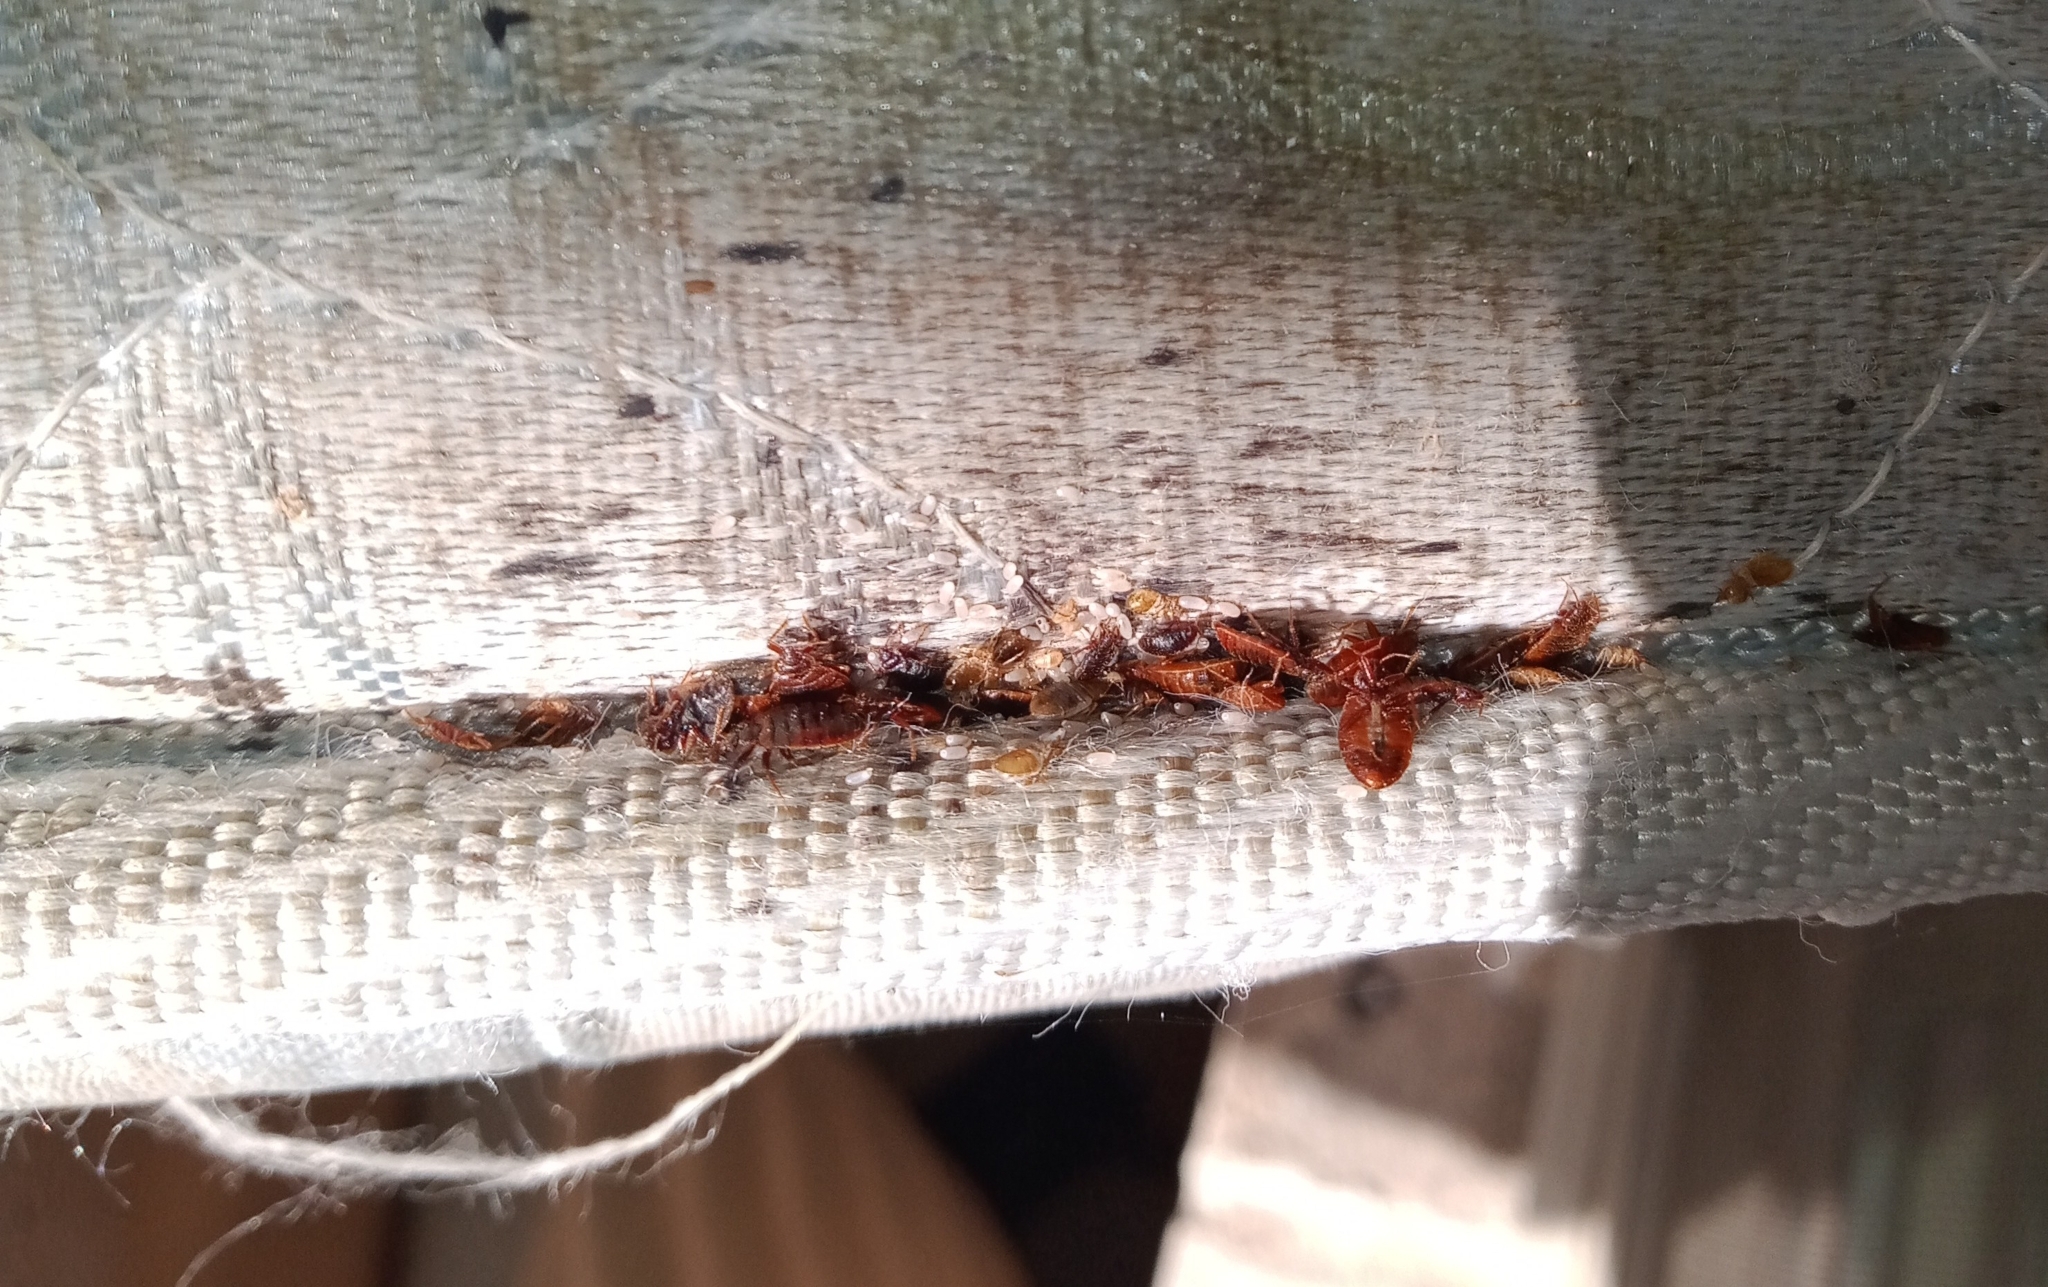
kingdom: Animalia
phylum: Arthropoda
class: Insecta
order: Hemiptera
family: Cimicidae
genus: Cimex
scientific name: Cimex lectularius
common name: Bed bug
